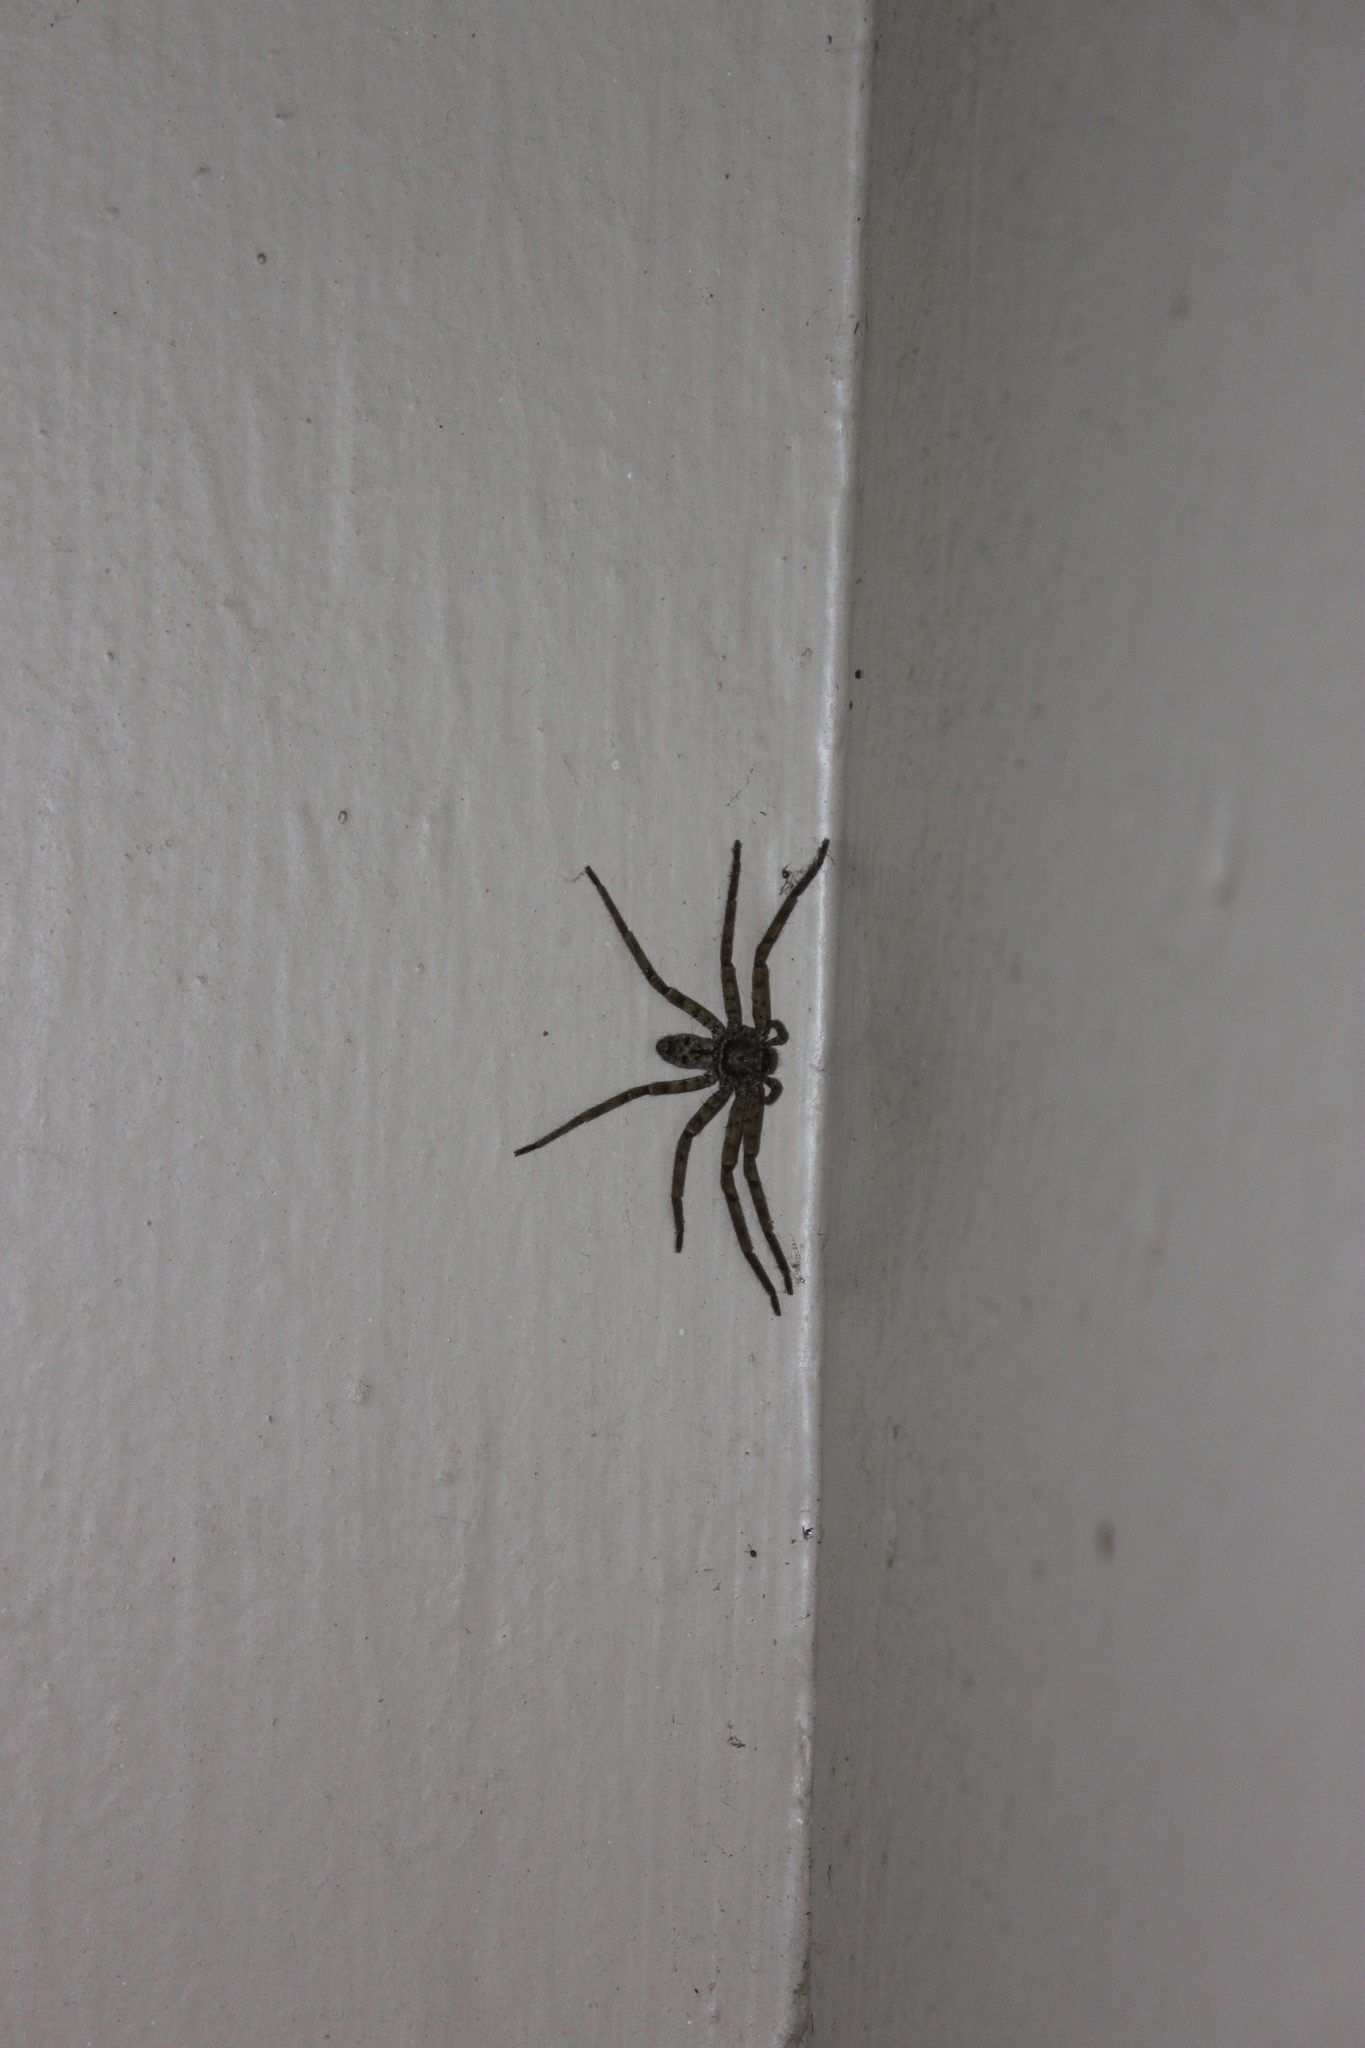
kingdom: Animalia
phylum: Arthropoda
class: Arachnida
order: Araneae
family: Sparassidae
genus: Heteropoda
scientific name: Heteropoda venatoria
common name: Huntsman spider
